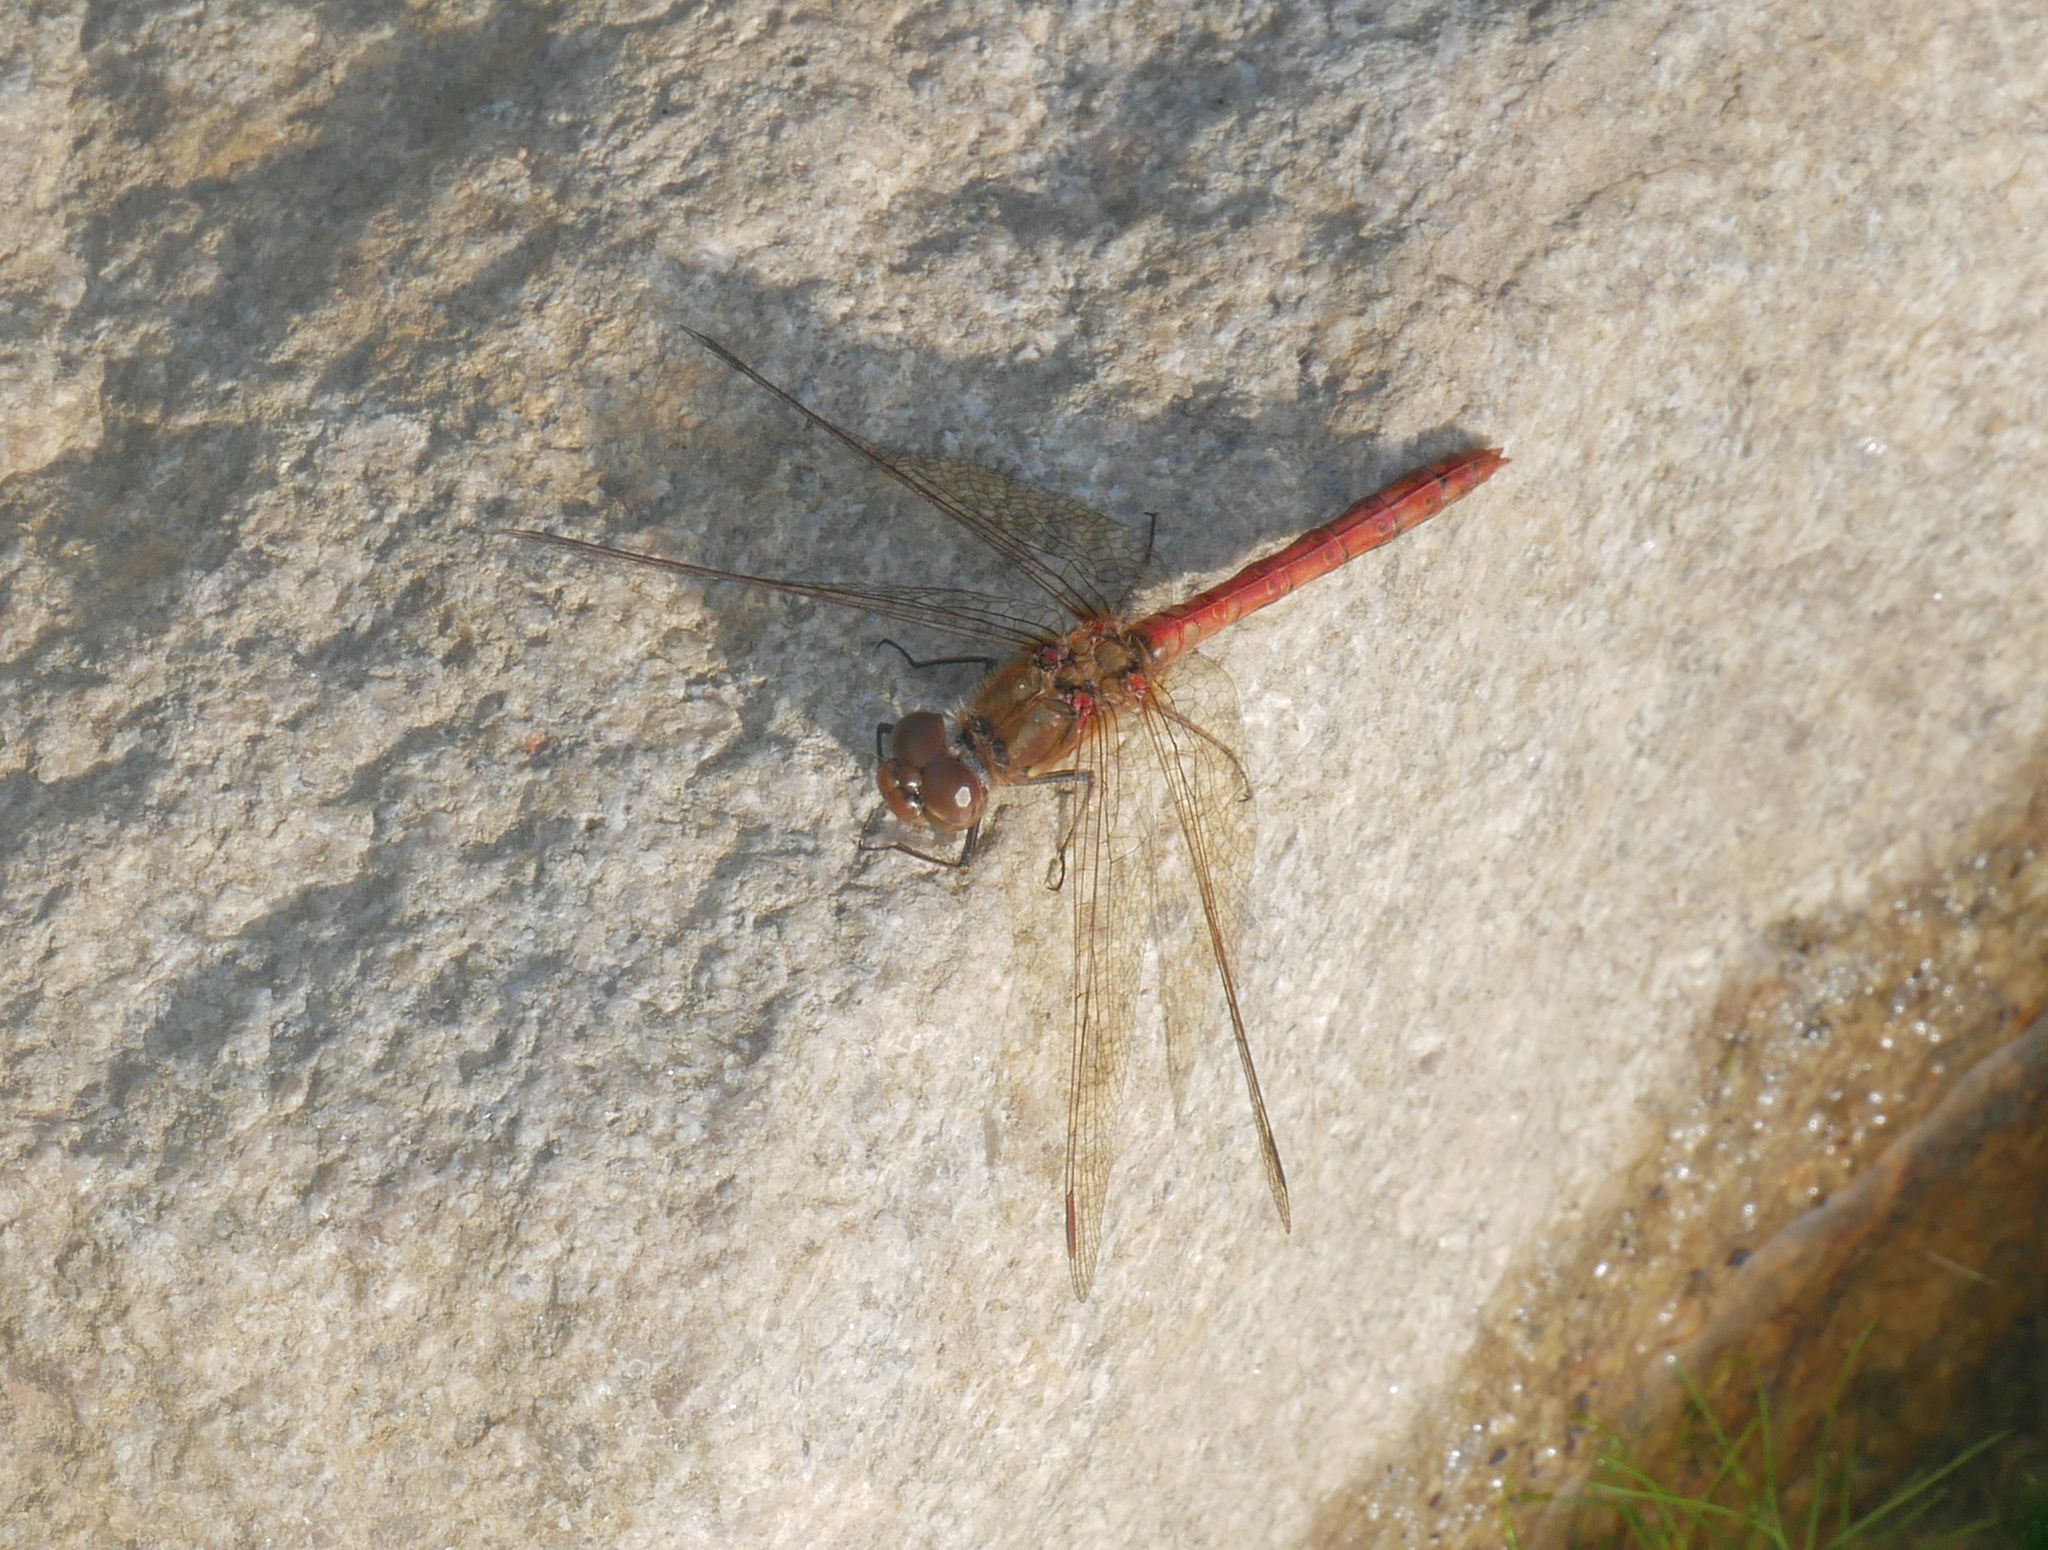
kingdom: Animalia
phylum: Arthropoda
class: Insecta
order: Odonata
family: Libellulidae
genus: Sympetrum
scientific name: Sympetrum striolatum
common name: Common darter
